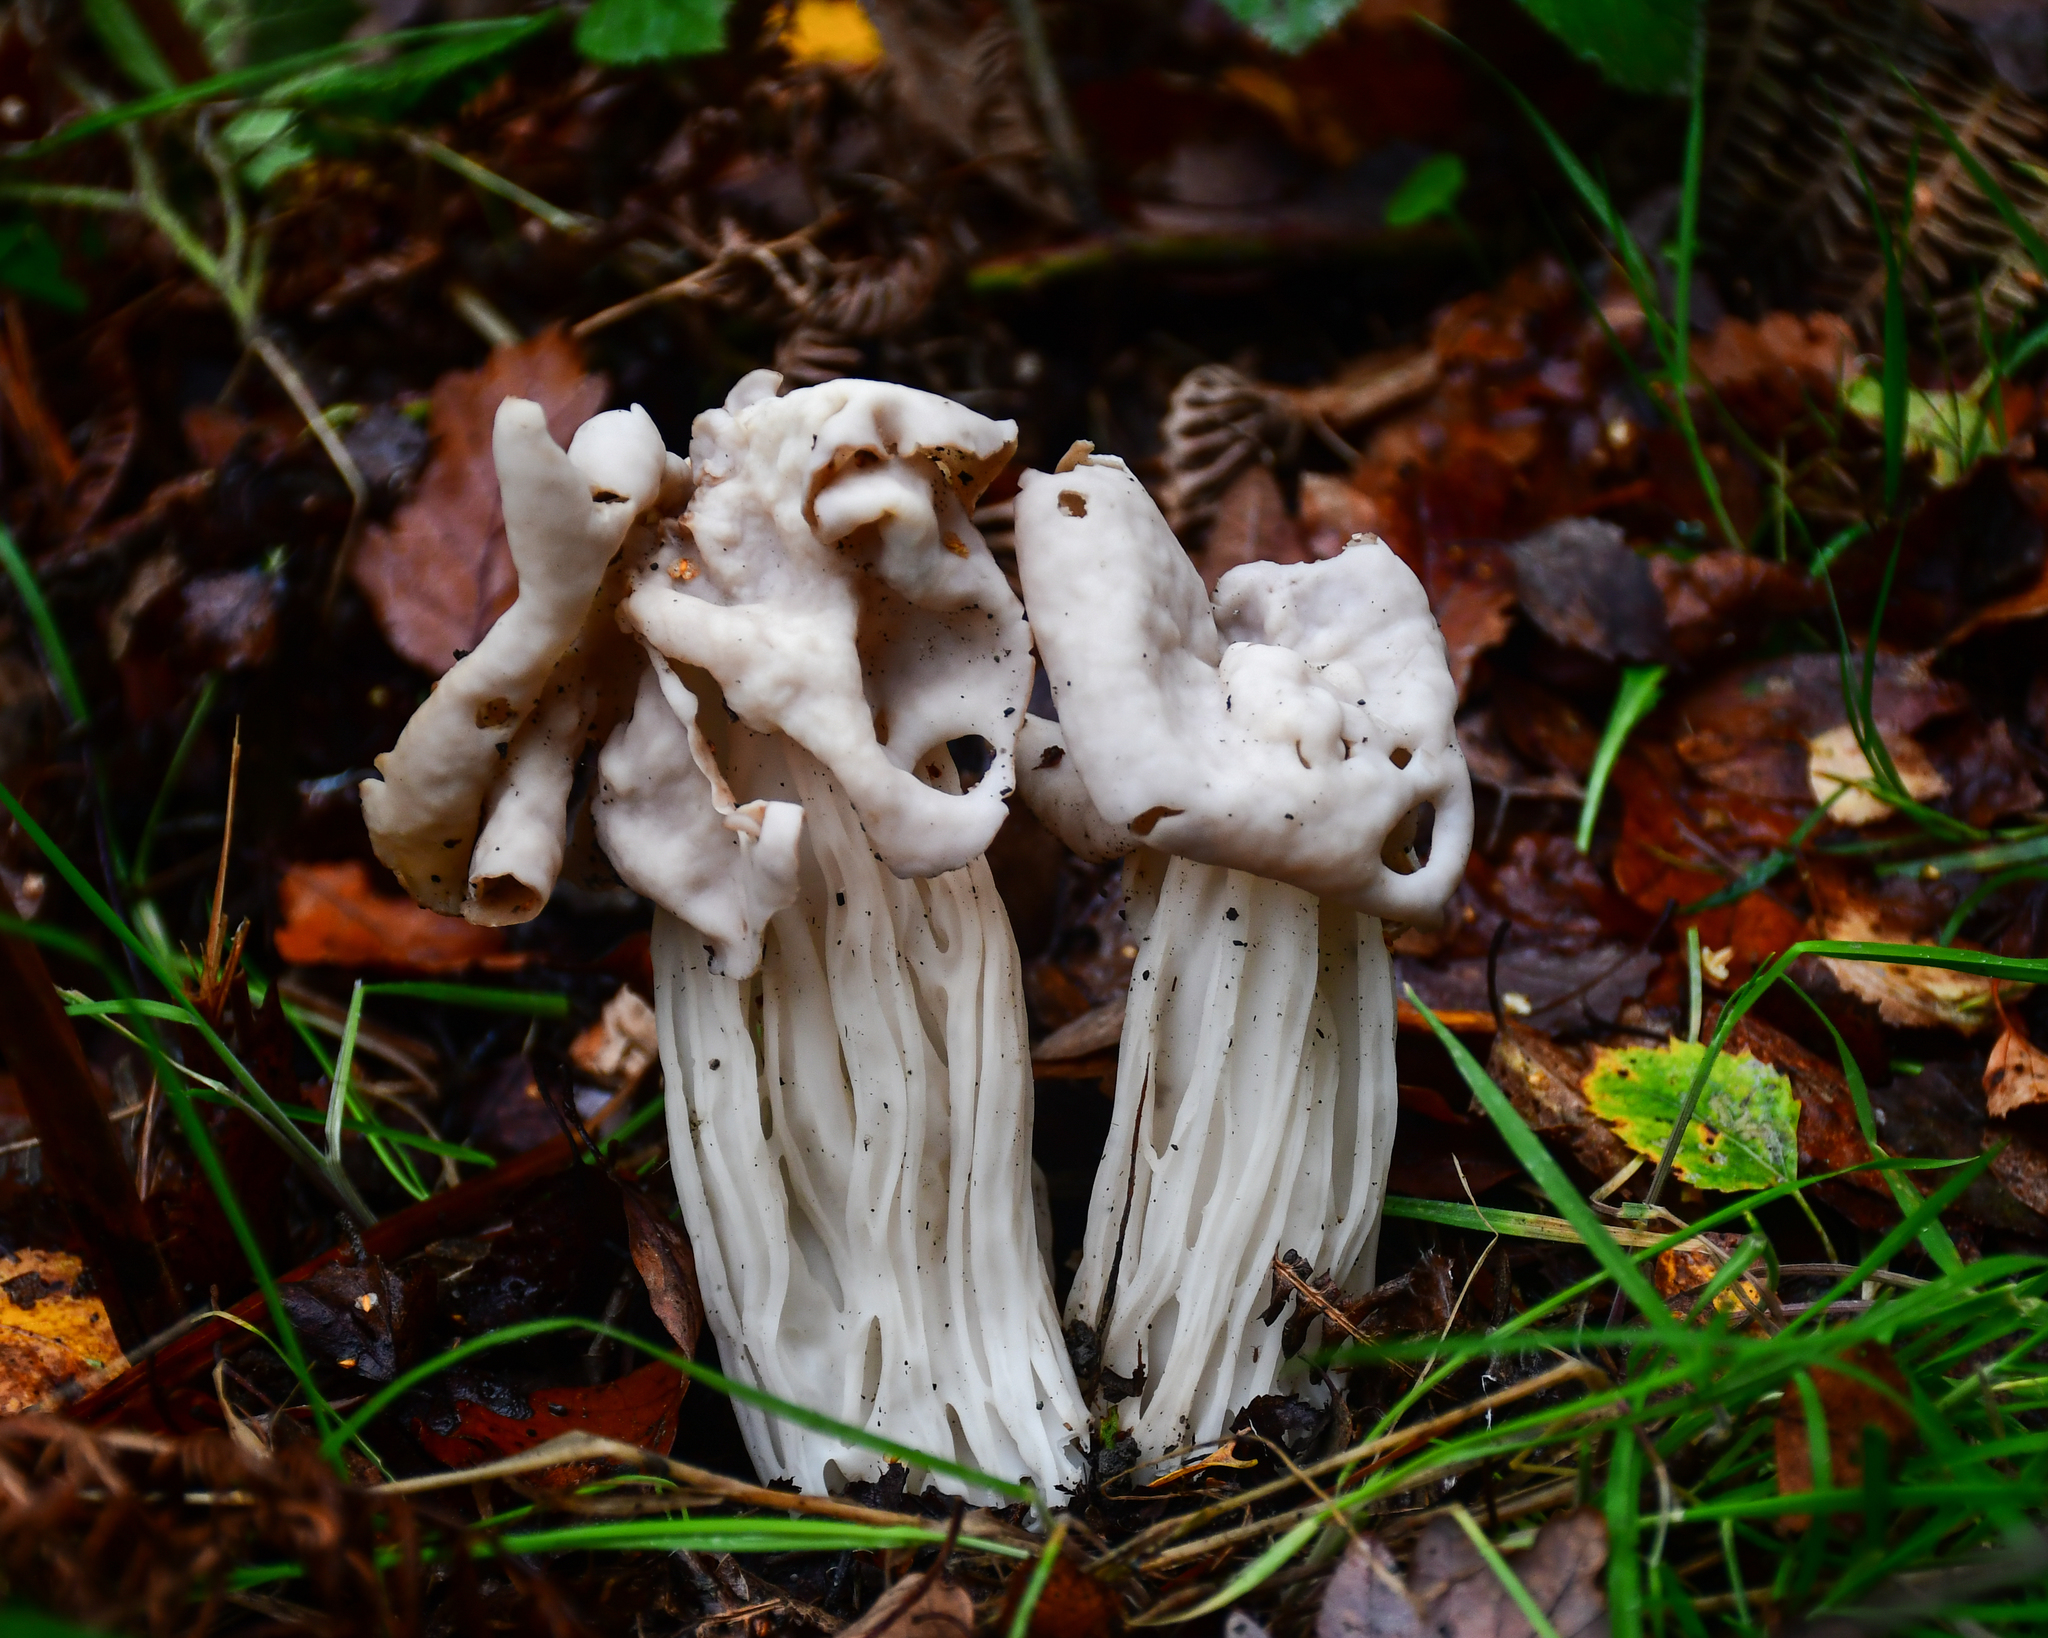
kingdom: Fungi
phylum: Ascomycota
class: Pezizomycetes
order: Pezizales
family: Helvellaceae
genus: Helvella
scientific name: Helvella crispa
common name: White saddle
